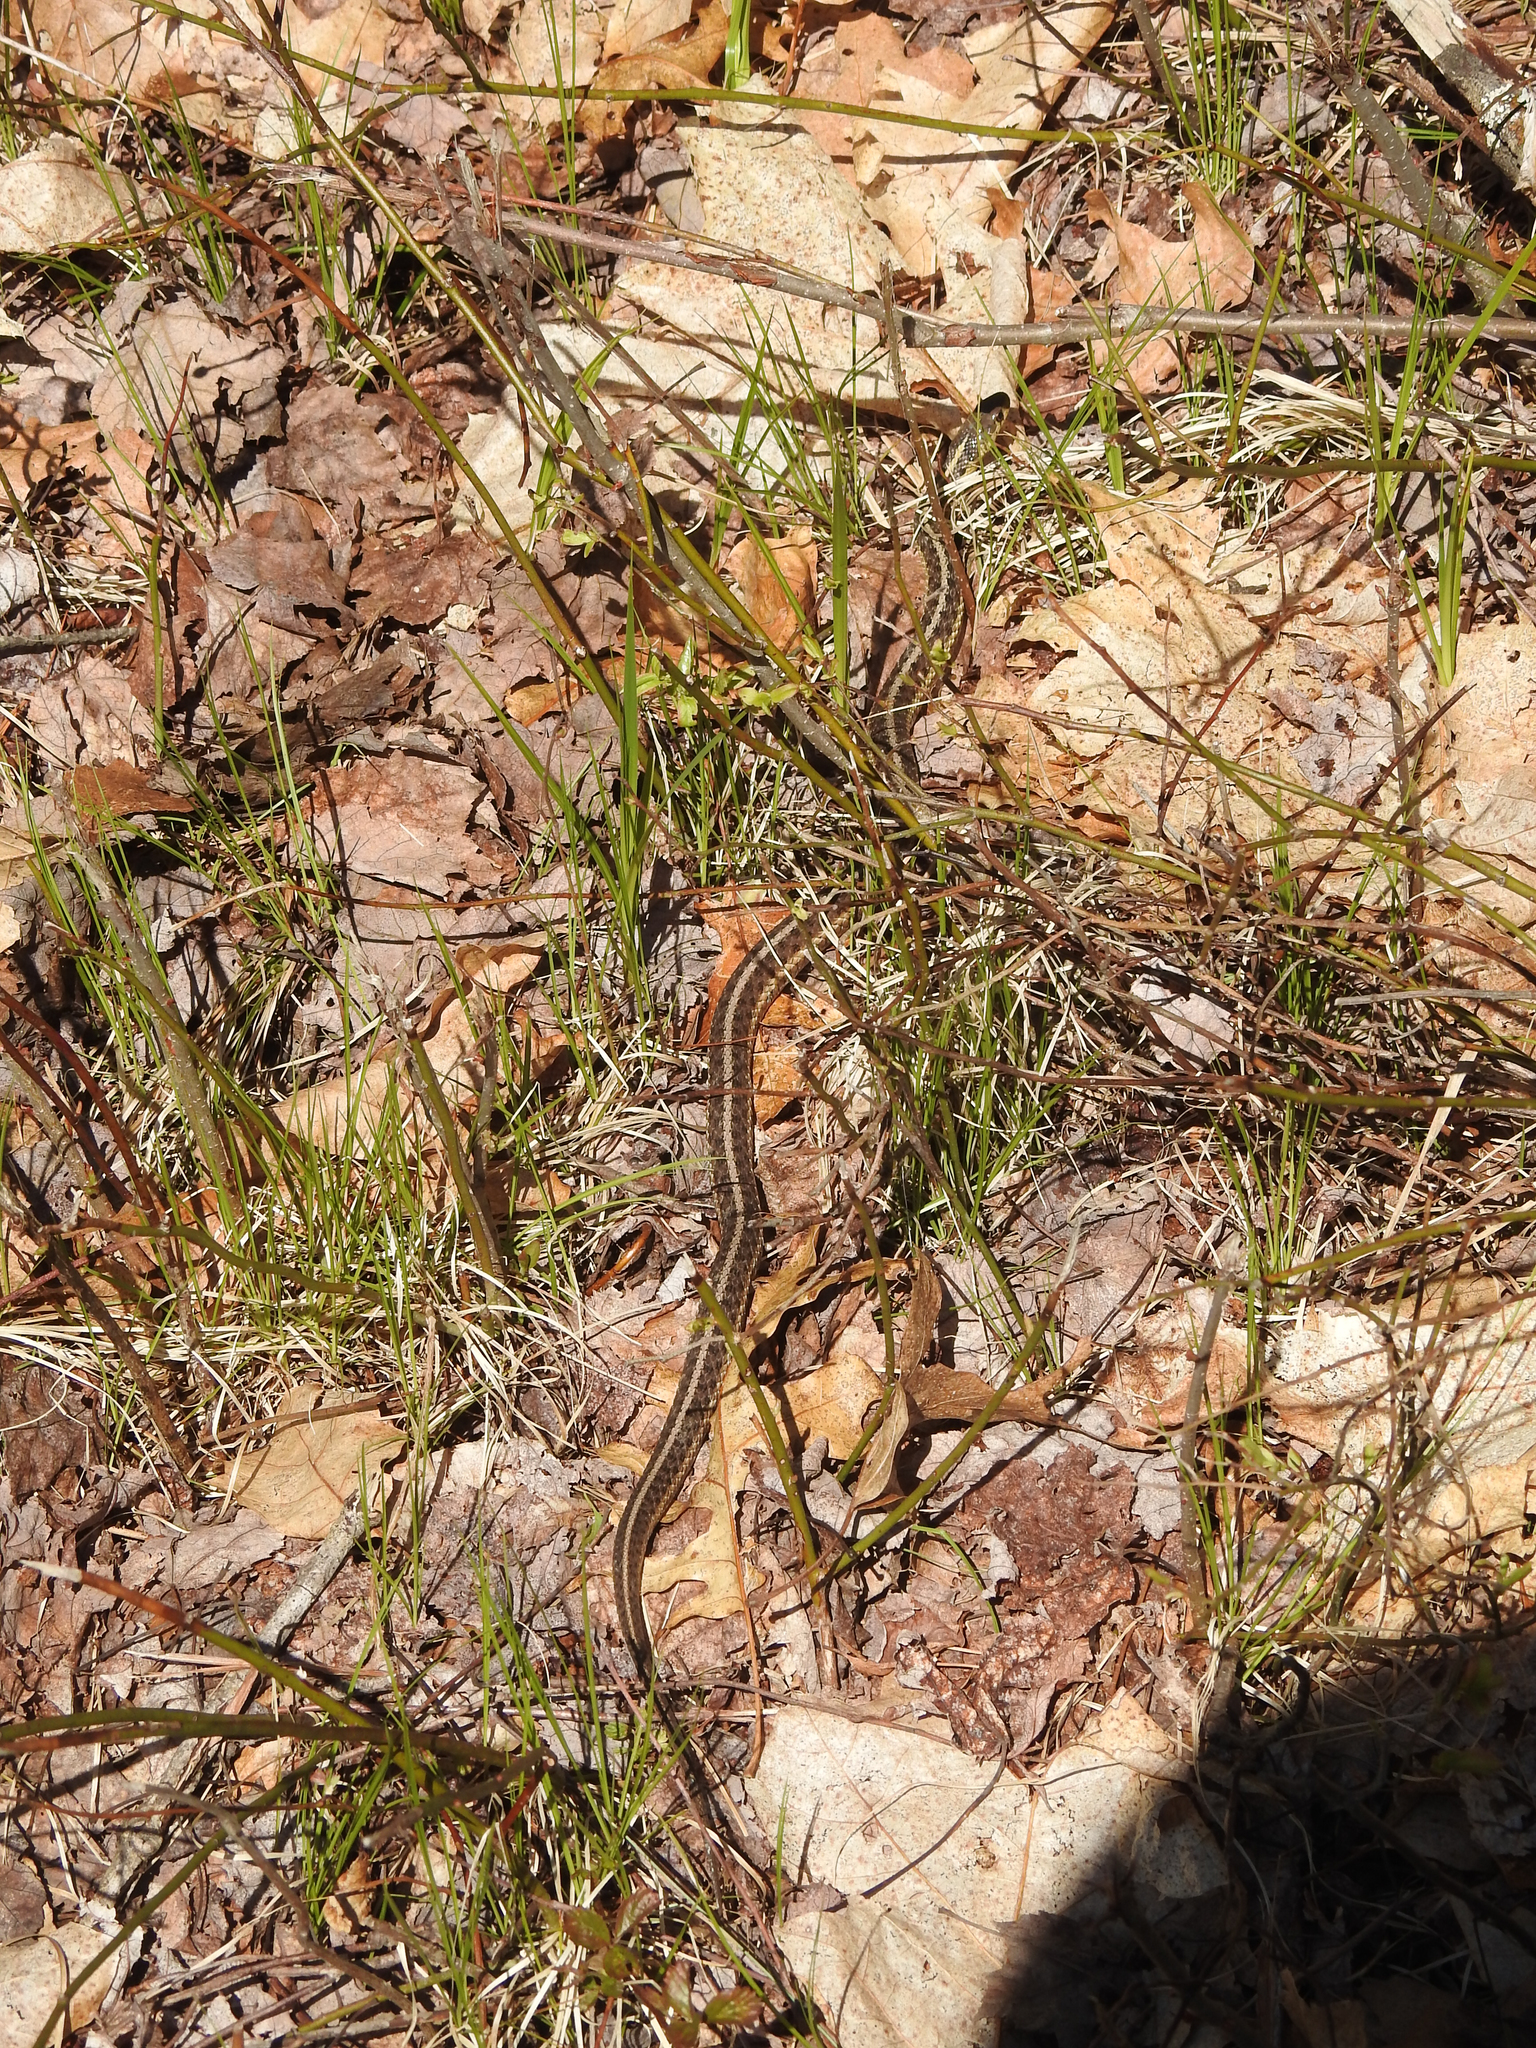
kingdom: Animalia
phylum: Chordata
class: Squamata
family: Colubridae
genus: Thamnophis
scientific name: Thamnophis sirtalis
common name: Common garter snake
